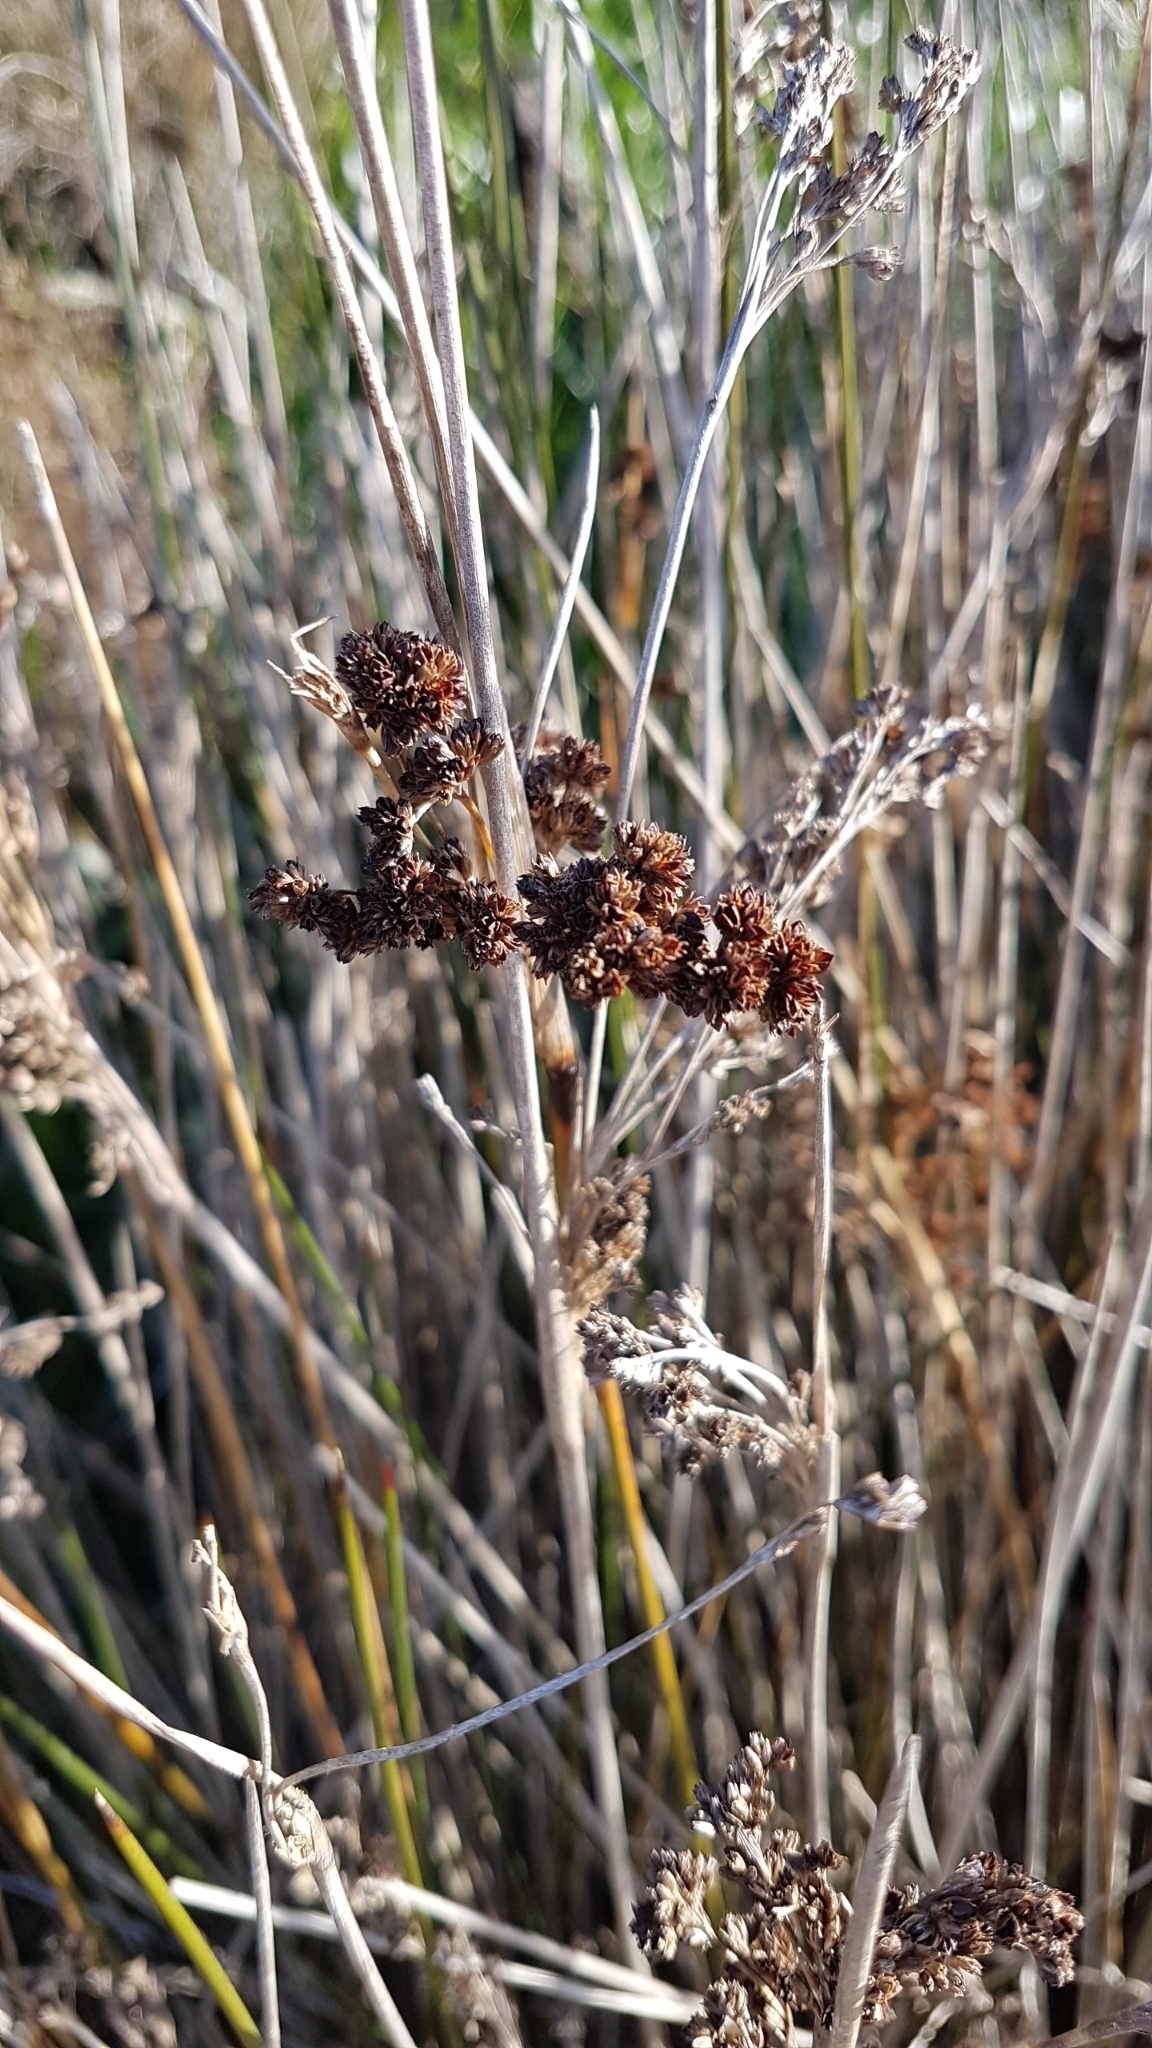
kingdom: Plantae
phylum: Tracheophyta
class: Liliopsida
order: Poales
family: Juncaceae
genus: Juncus
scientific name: Juncus kraussii
